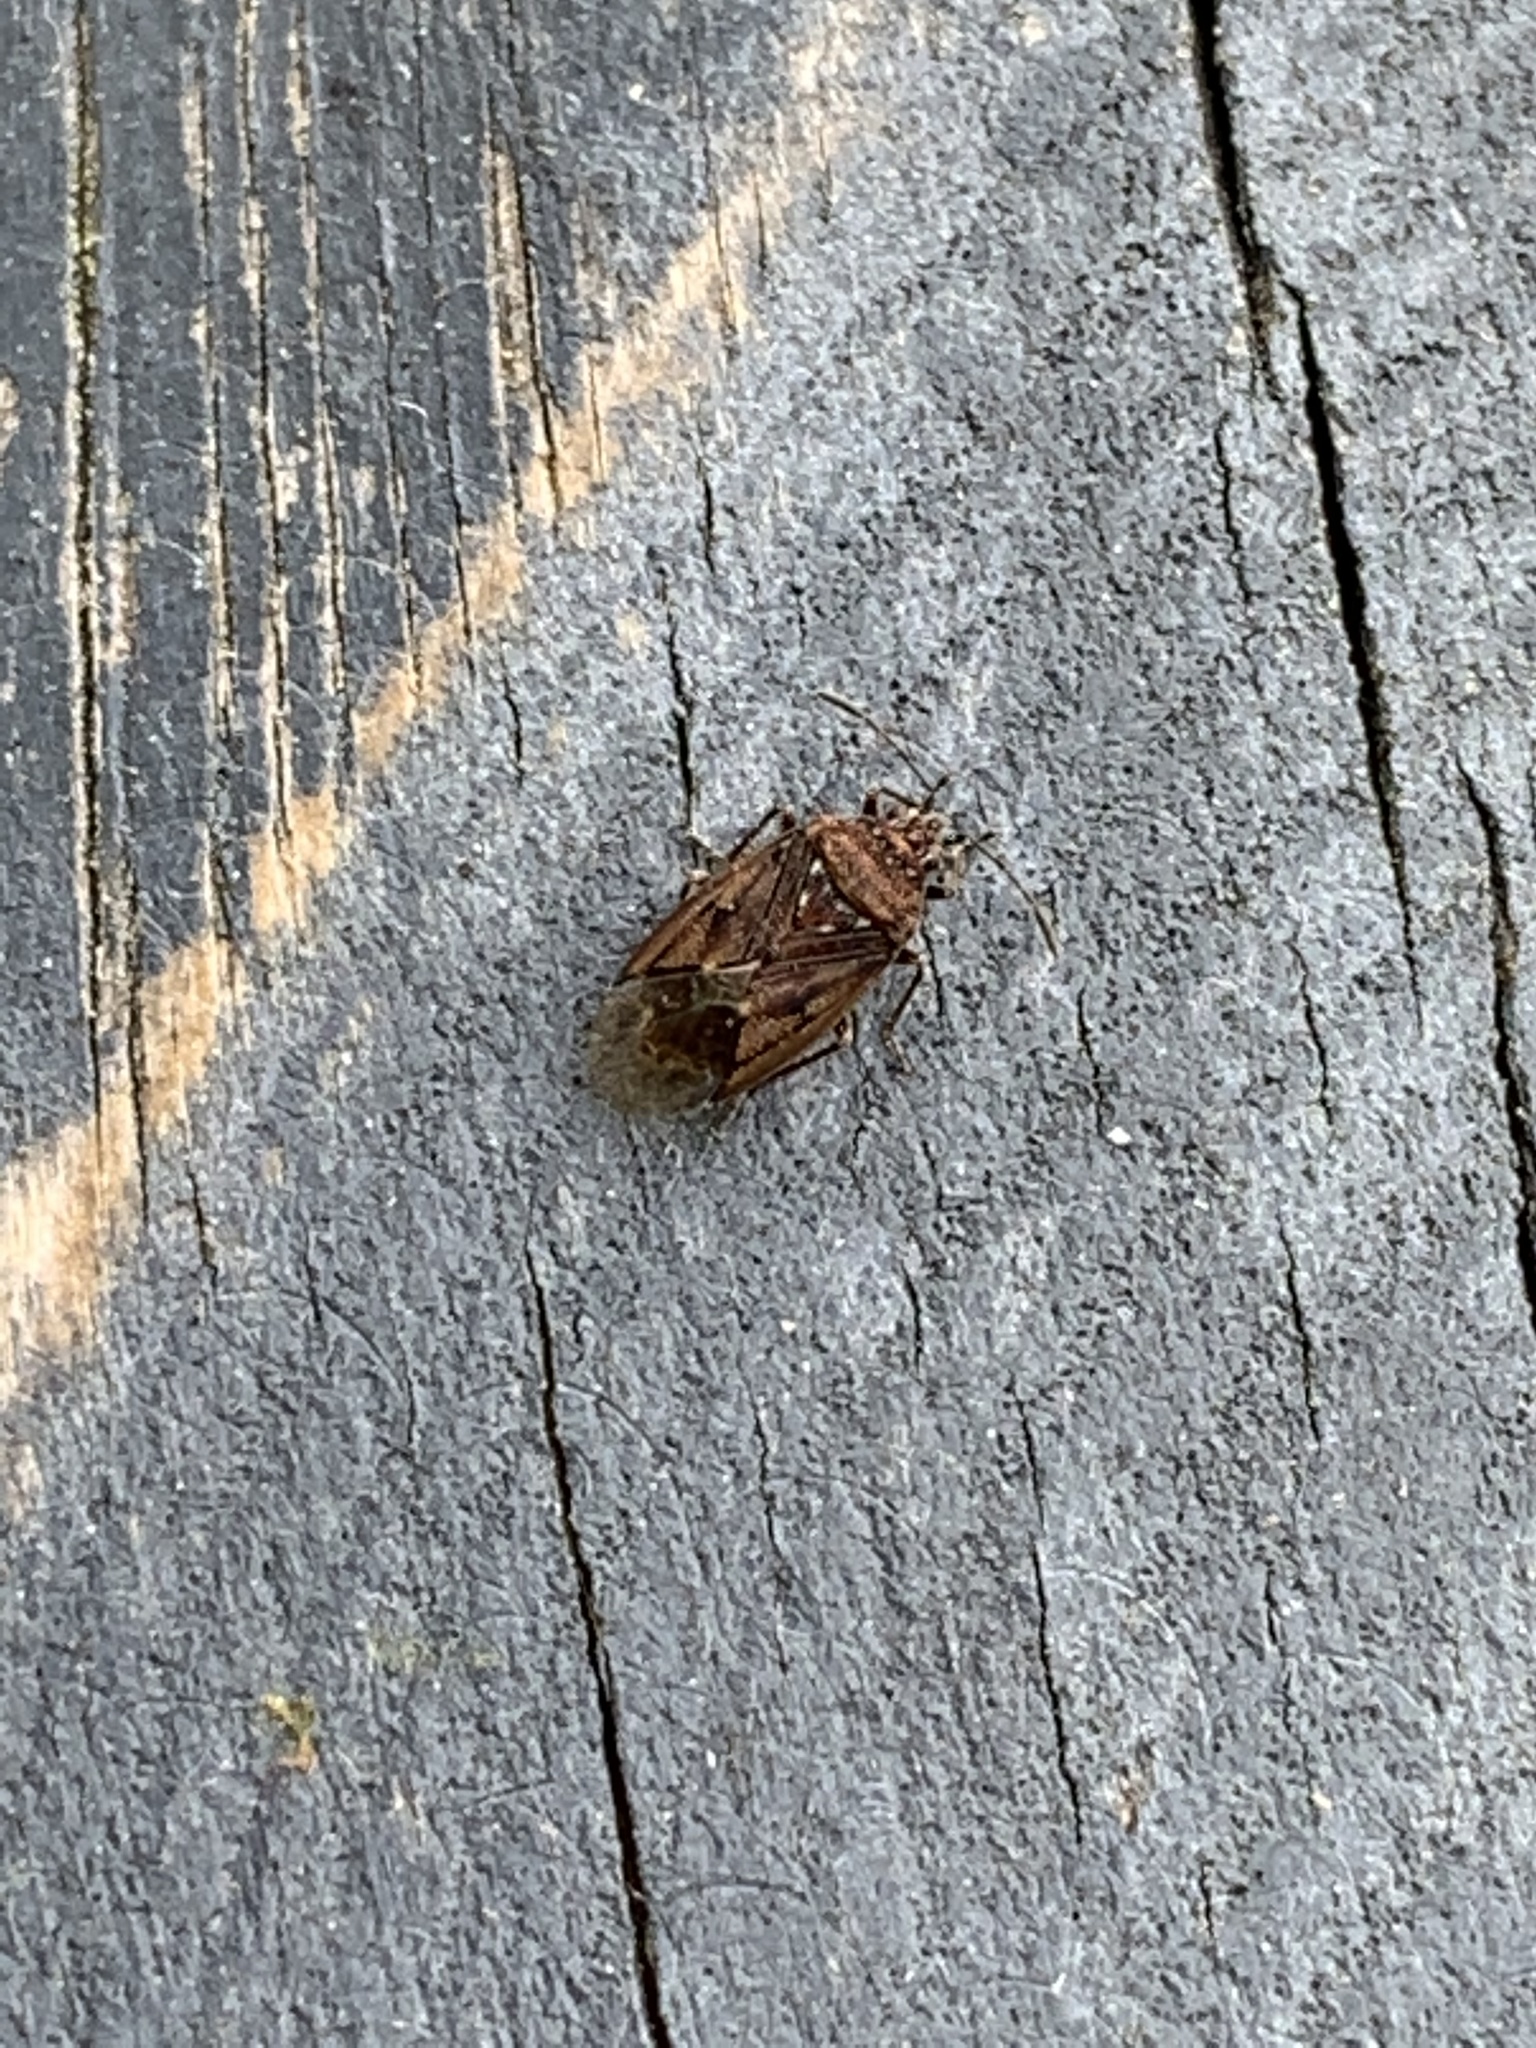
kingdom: Animalia
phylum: Arthropoda
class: Insecta
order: Hemiptera
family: Lygaeidae
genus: Kleidocerys
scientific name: Kleidocerys resedae
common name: Birch catkin bug
